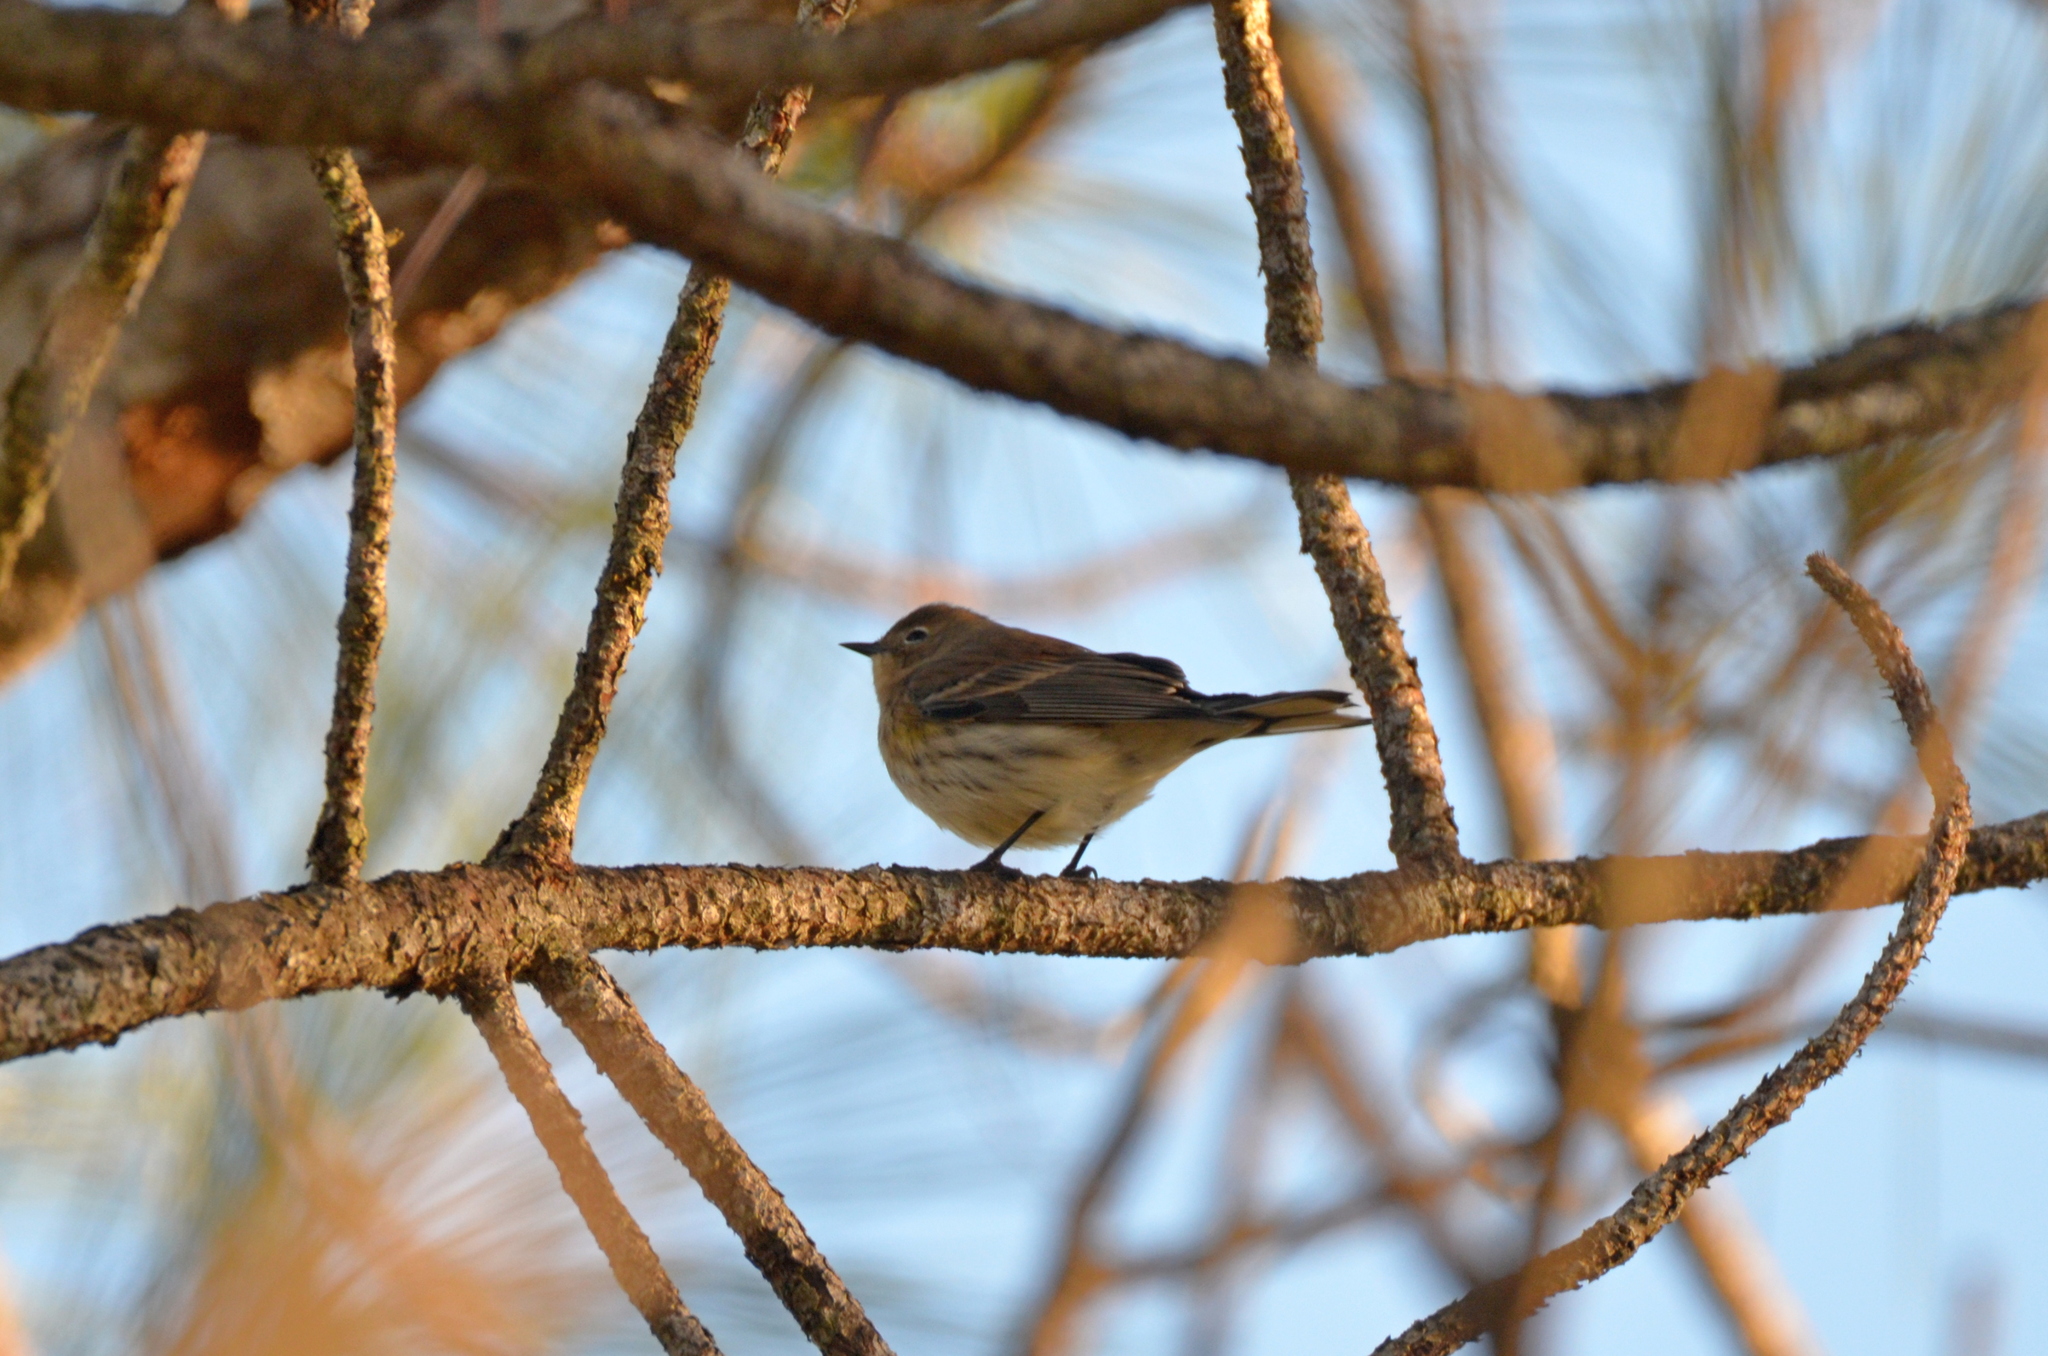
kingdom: Animalia
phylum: Chordata
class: Aves
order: Passeriformes
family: Parulidae
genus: Setophaga
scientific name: Setophaga coronata
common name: Myrtle warbler
